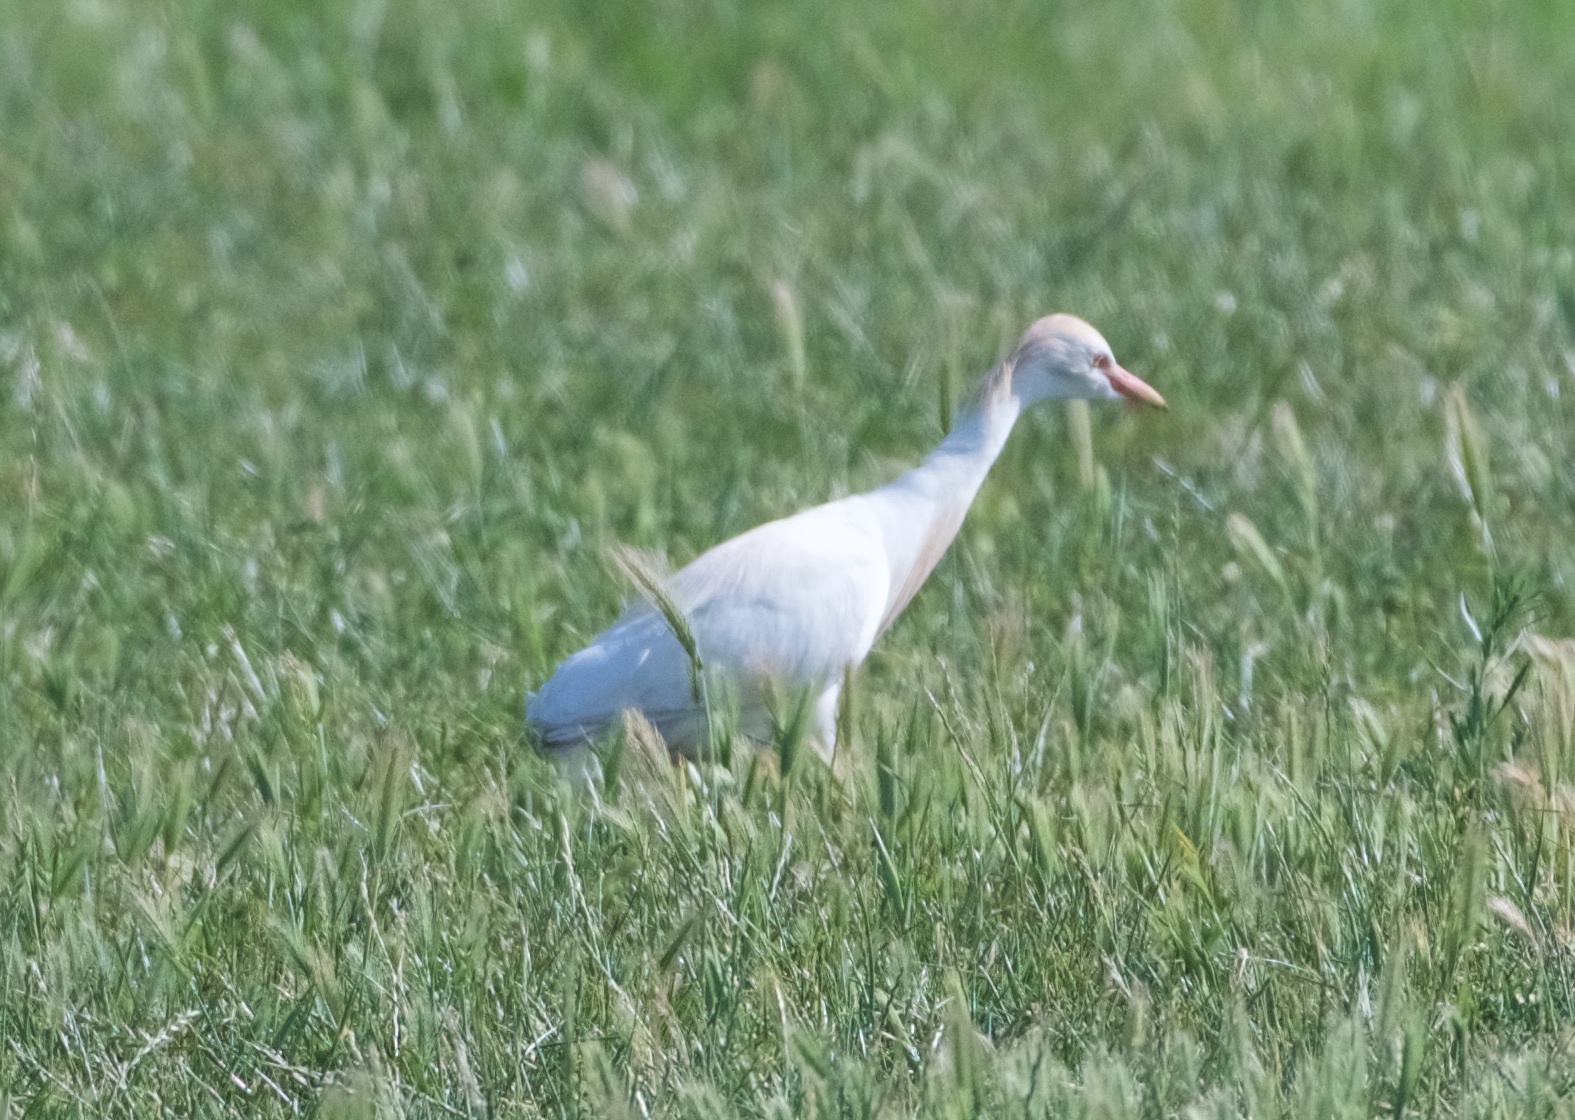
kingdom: Animalia
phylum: Chordata
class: Aves
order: Pelecaniformes
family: Ardeidae
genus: Bubulcus
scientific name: Bubulcus ibis
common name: Cattle egret
